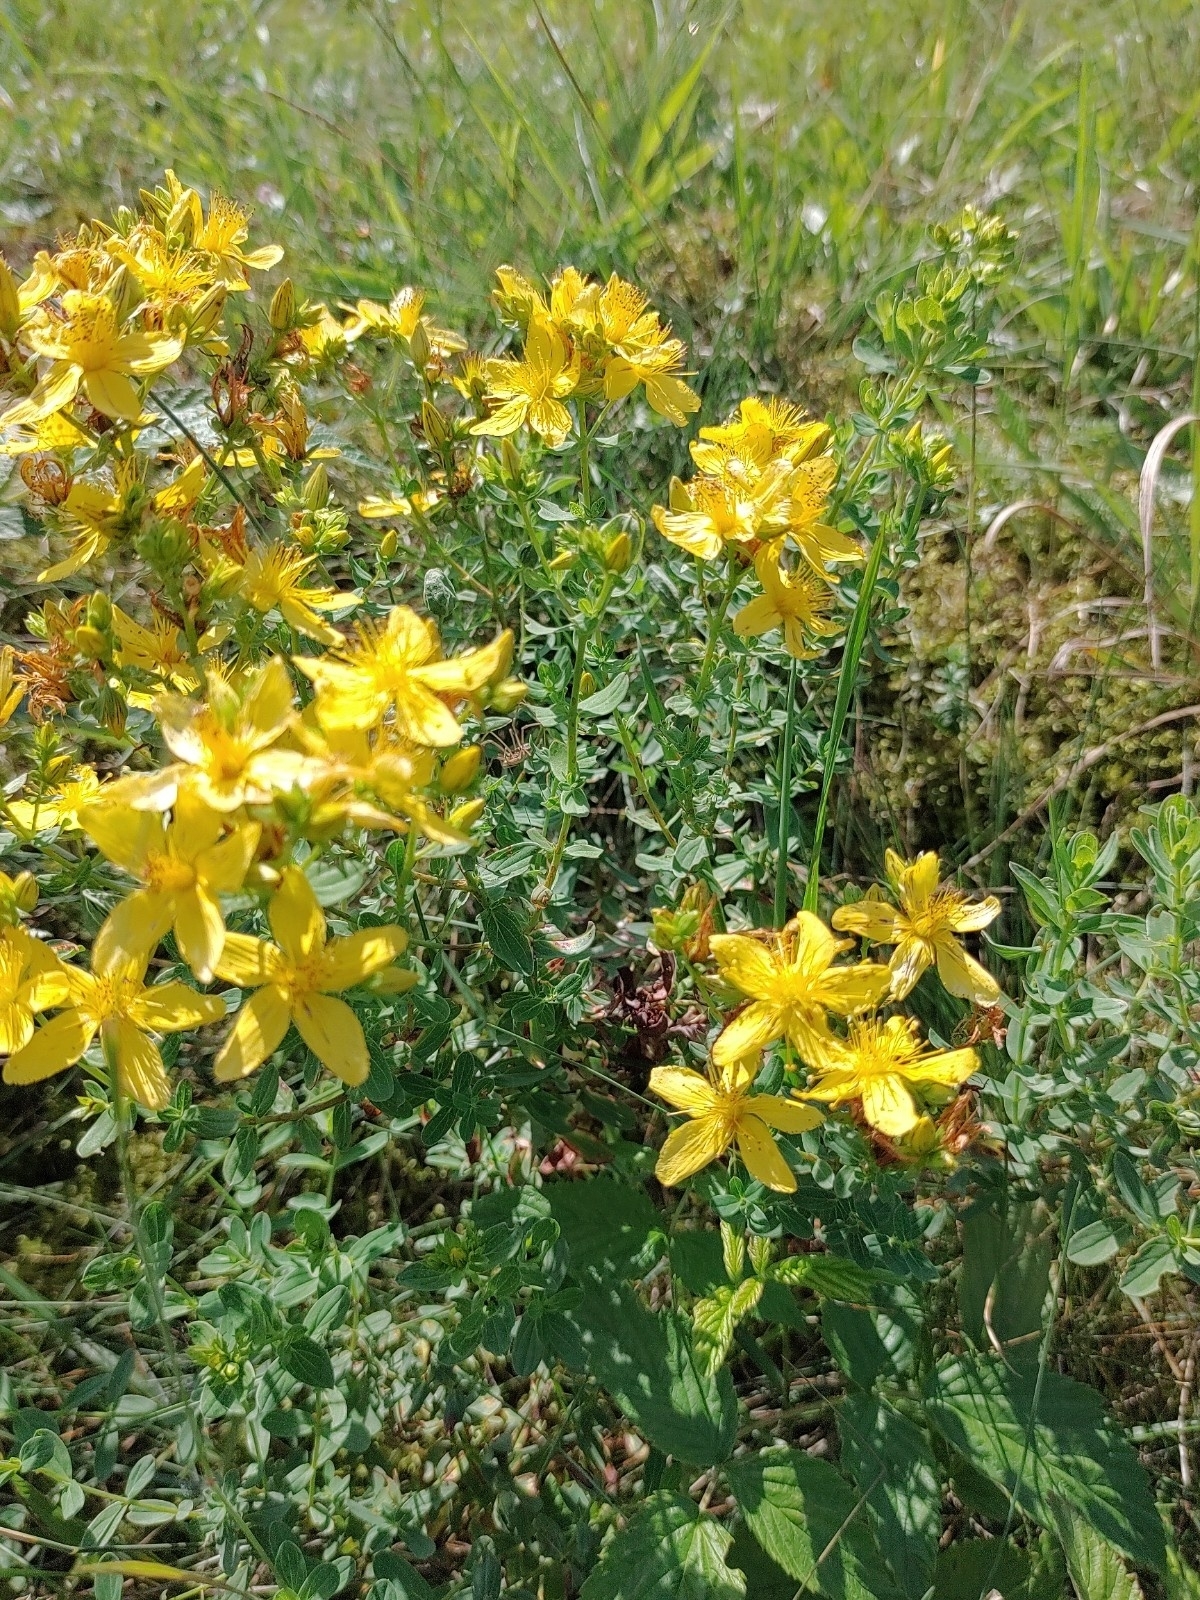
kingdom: Plantae
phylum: Tracheophyta
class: Magnoliopsida
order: Malpighiales
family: Hypericaceae
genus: Hypericum
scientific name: Hypericum perforatum
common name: Common st. johnswort
